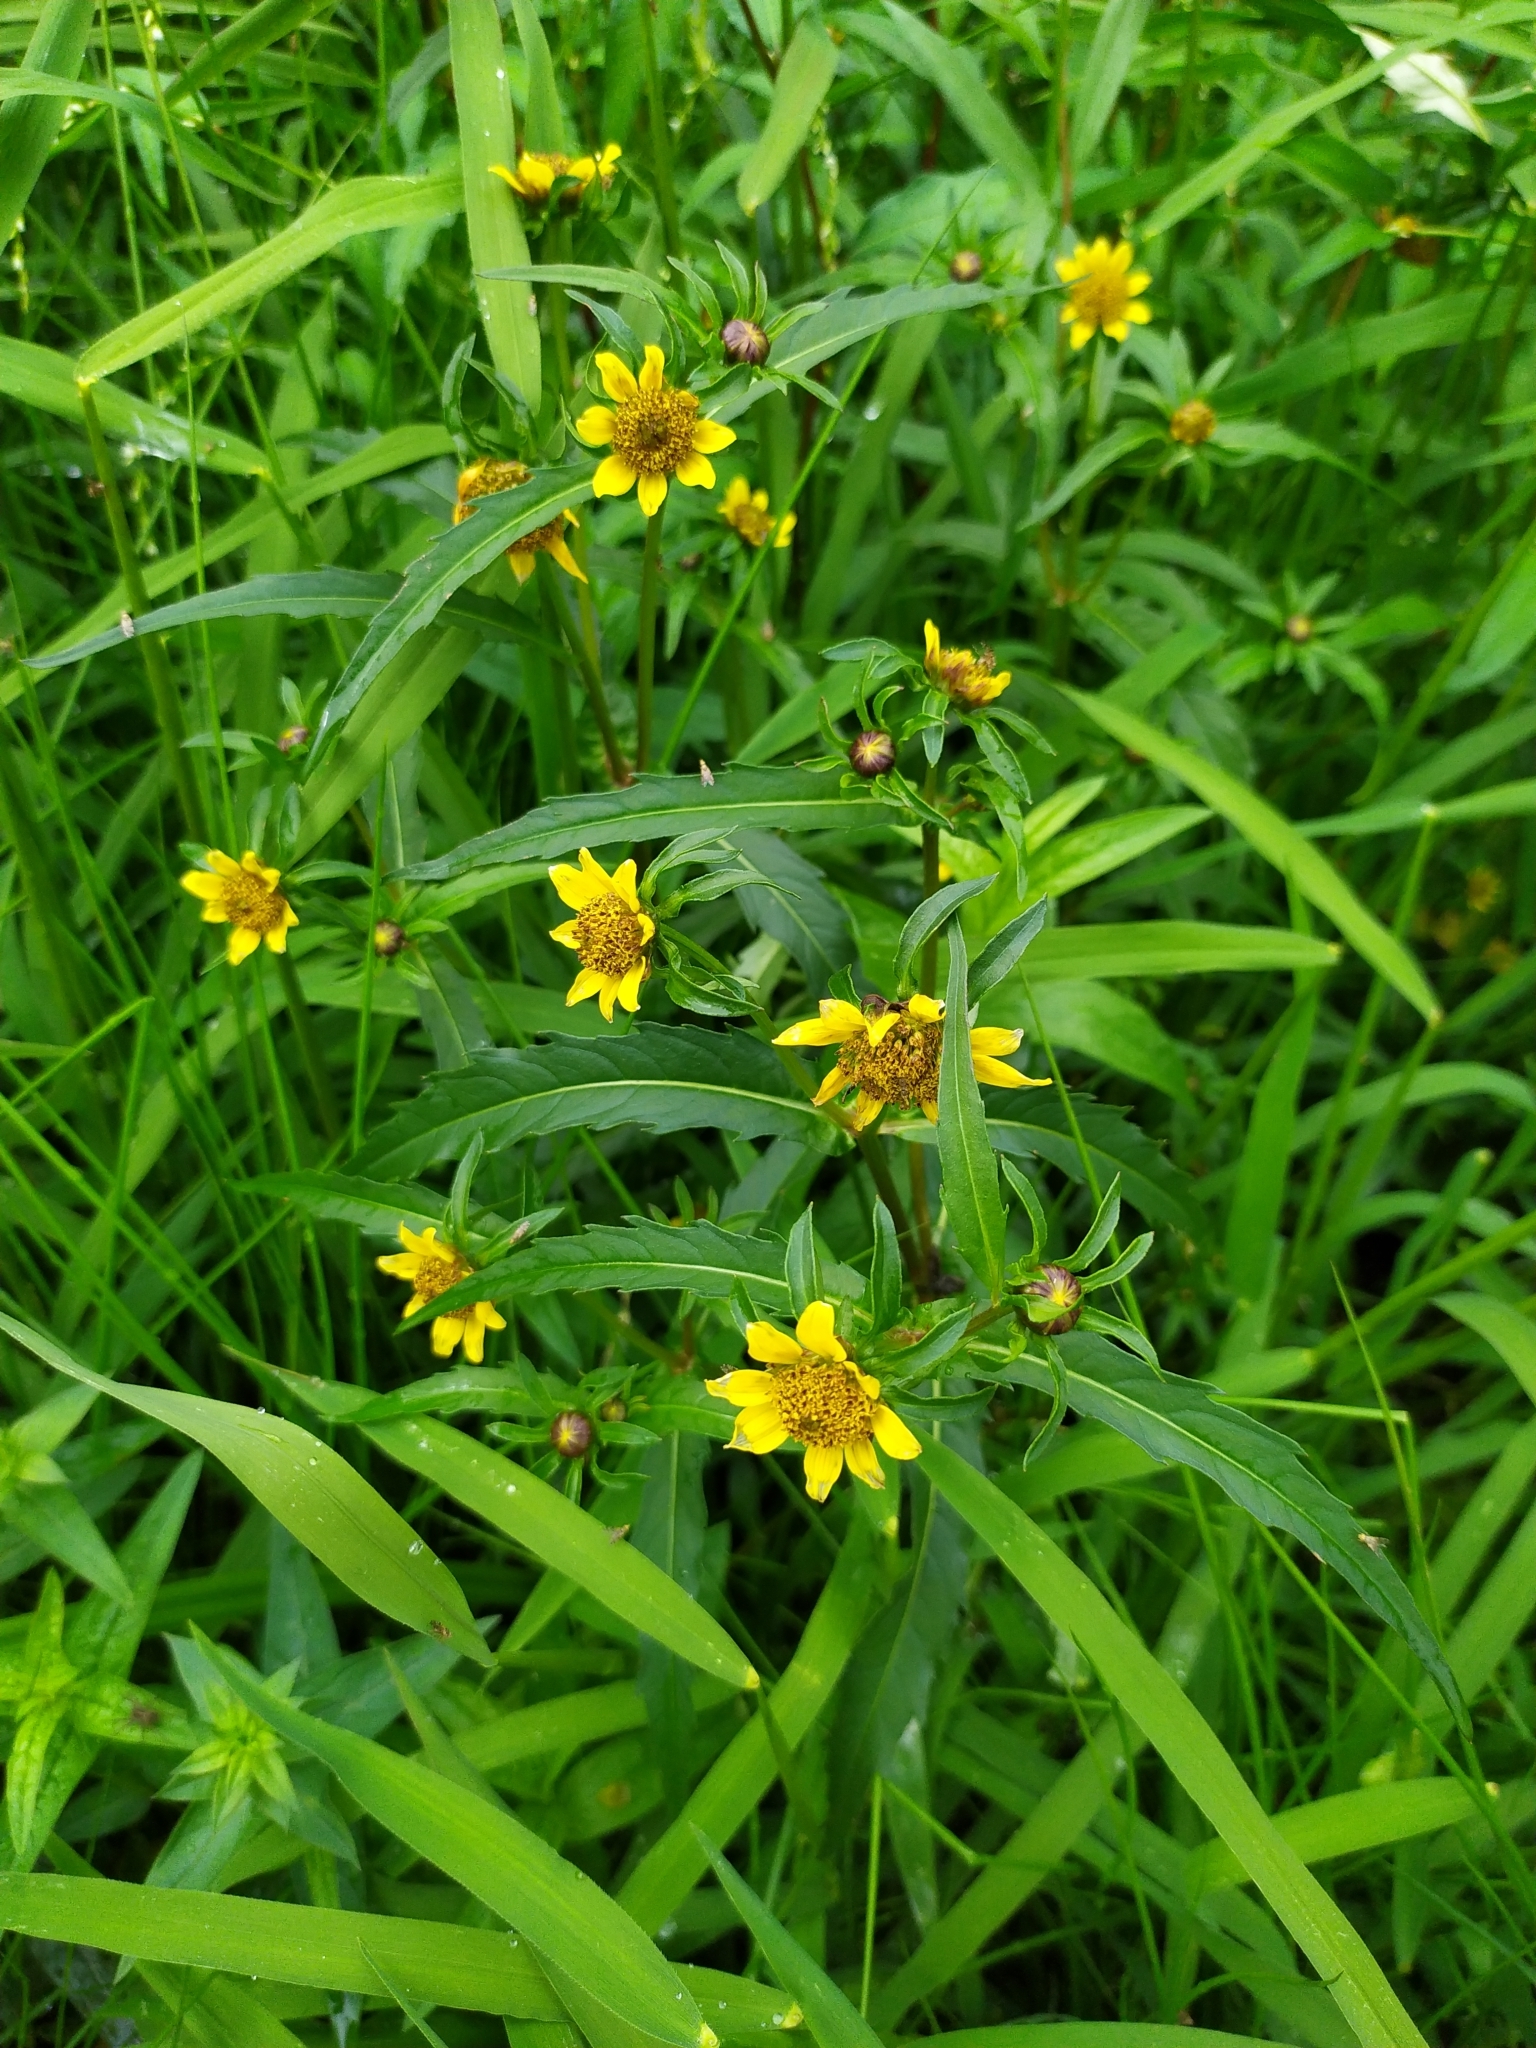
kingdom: Plantae
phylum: Tracheophyta
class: Magnoliopsida
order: Asterales
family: Asteraceae
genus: Bidens
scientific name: Bidens cernua
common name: Nodding bur-marigold
